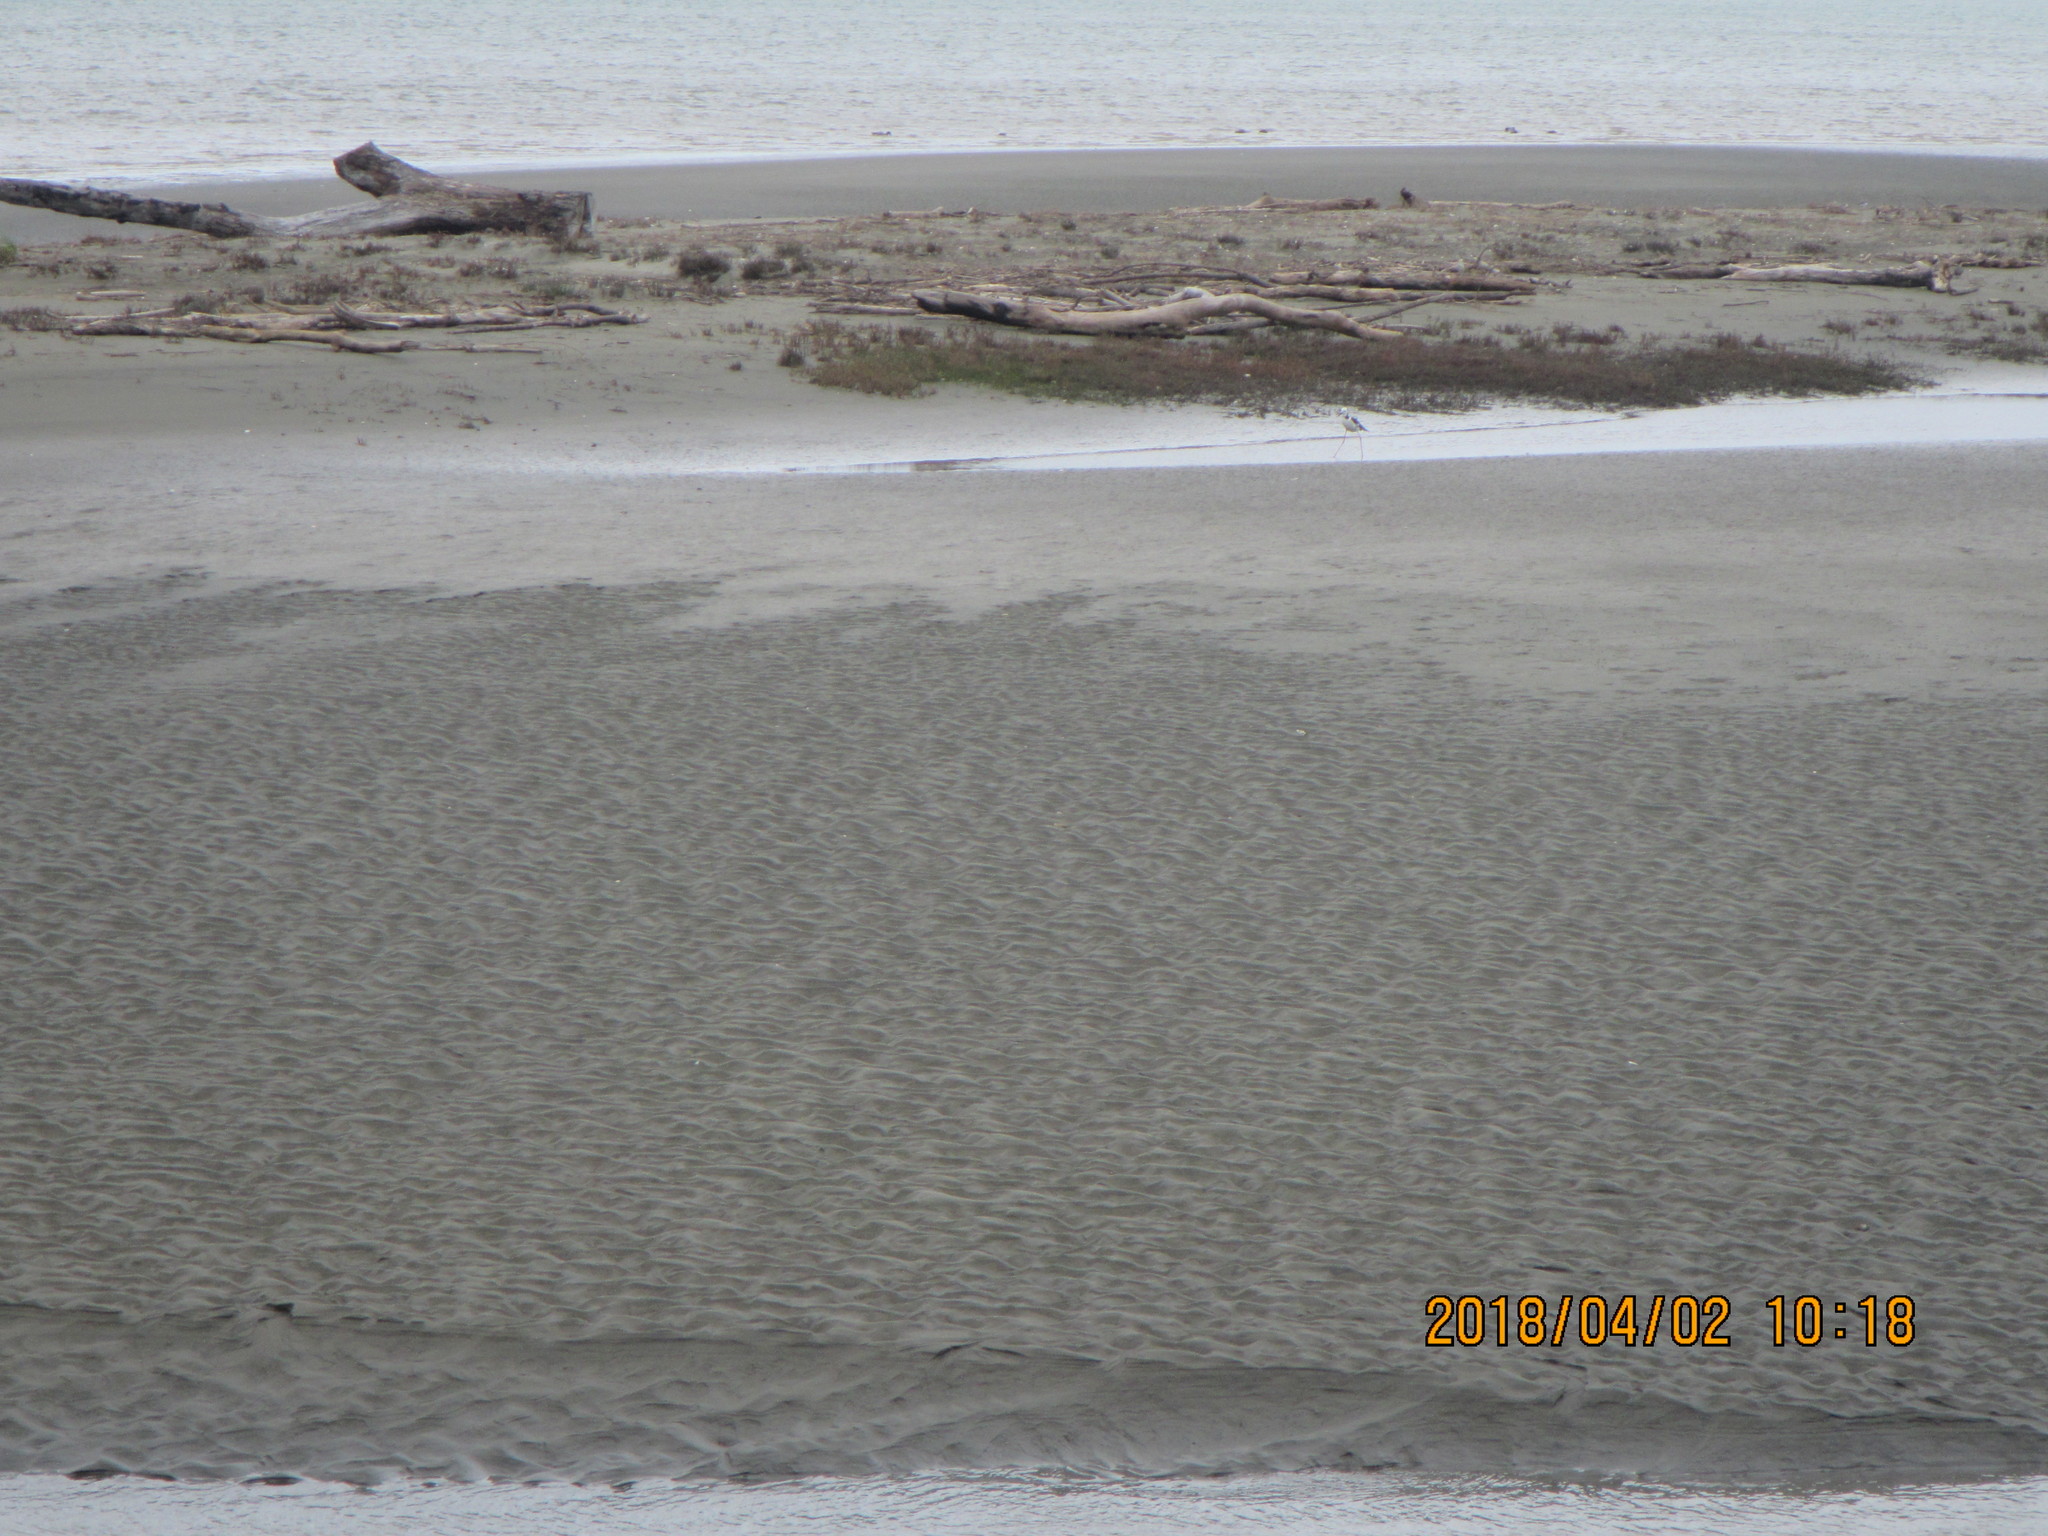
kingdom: Animalia
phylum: Chordata
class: Aves
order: Charadriiformes
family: Recurvirostridae
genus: Himantopus
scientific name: Himantopus leucocephalus
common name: White-headed stilt
